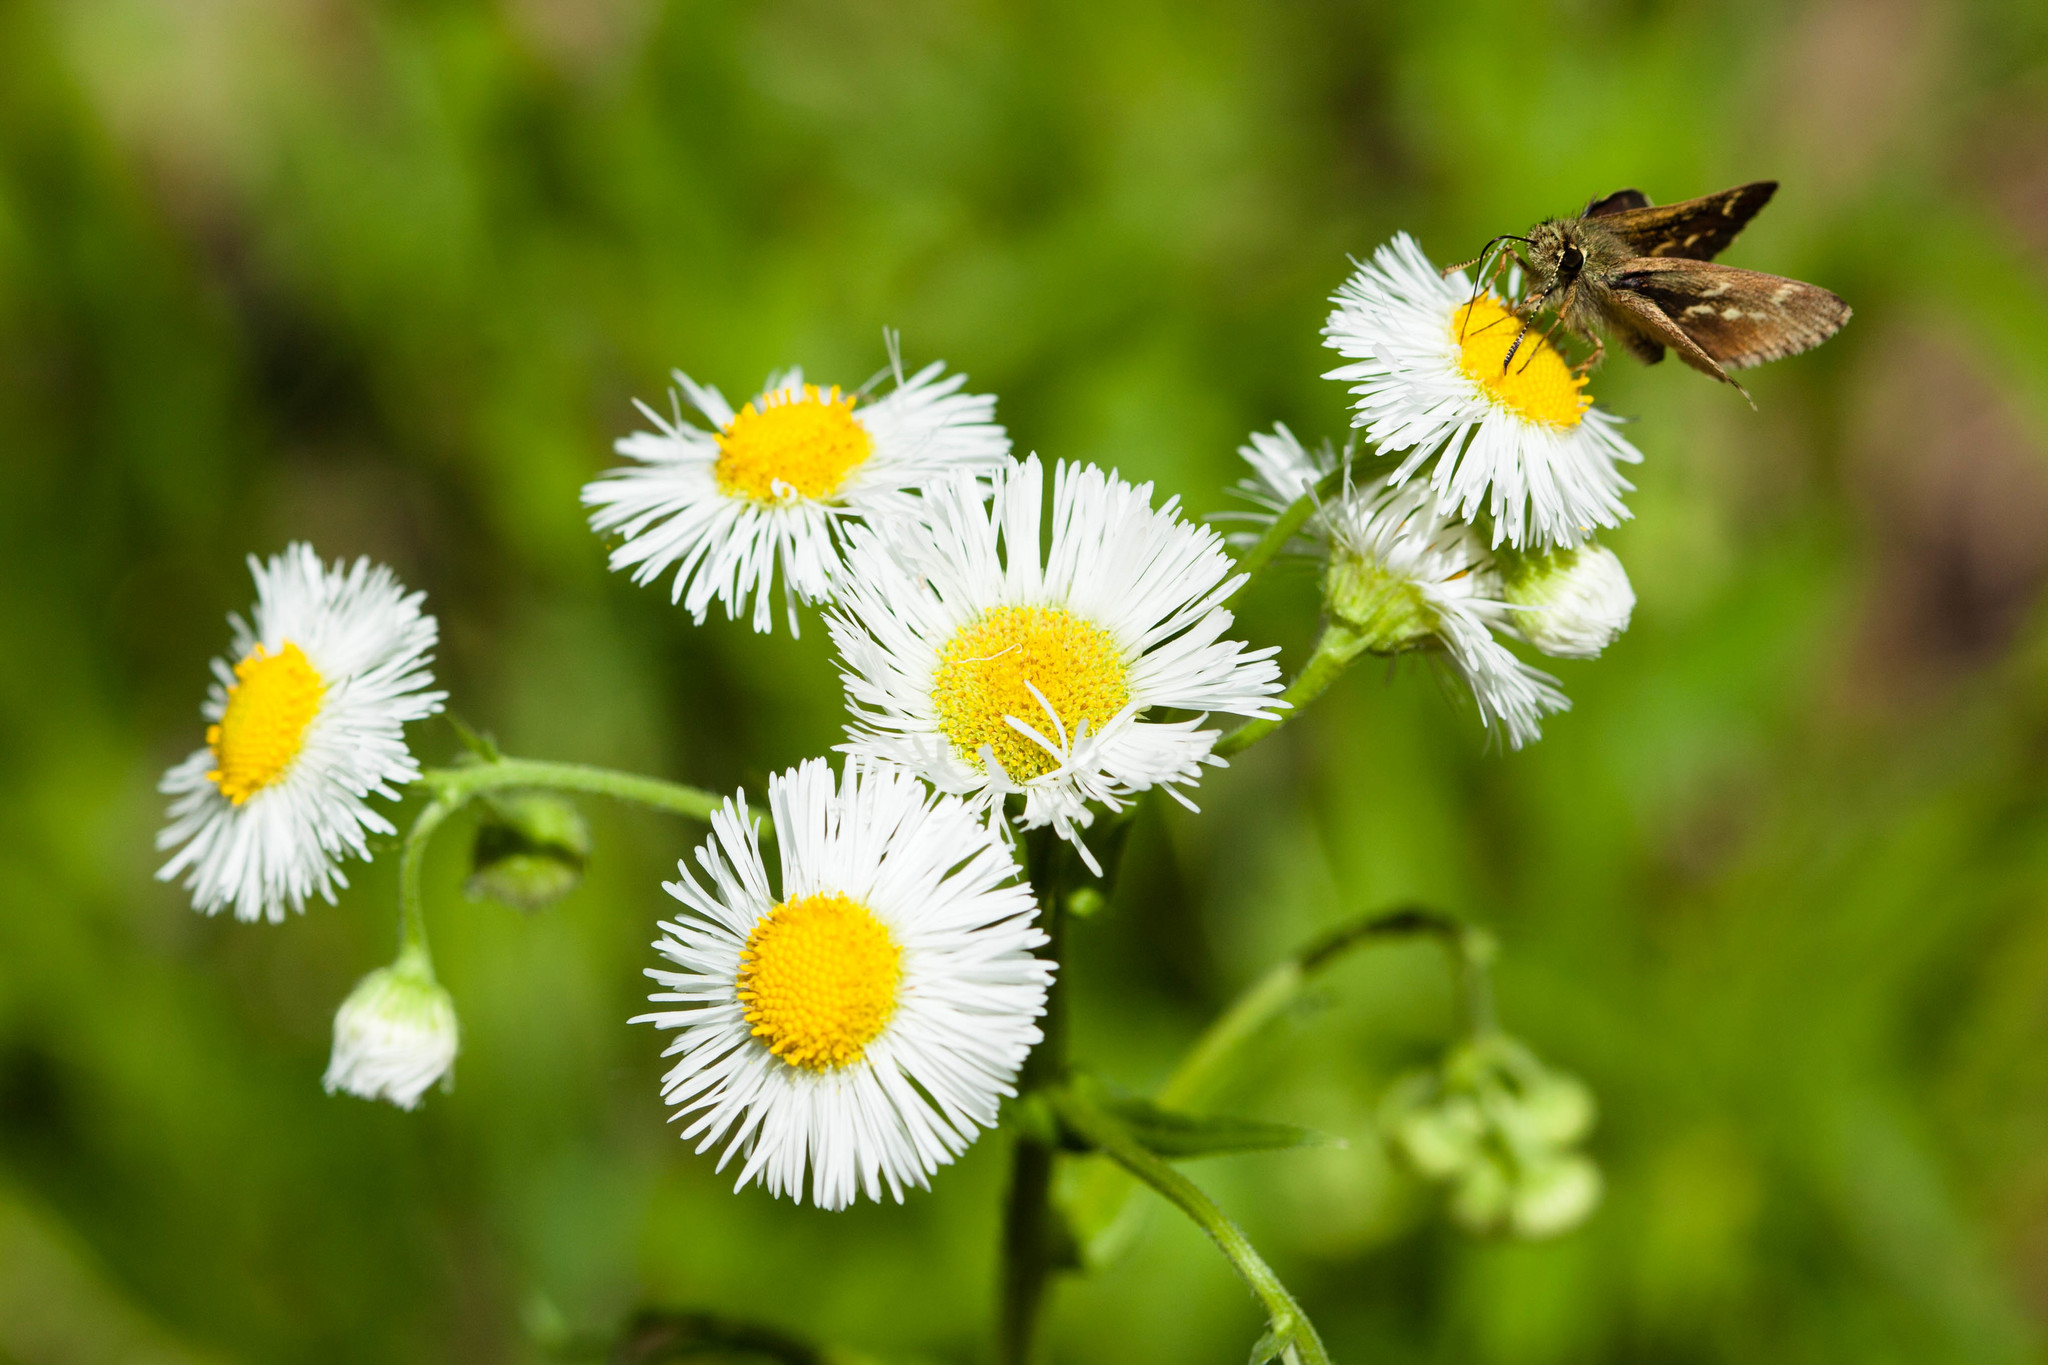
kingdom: Animalia
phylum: Arthropoda
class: Insecta
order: Lepidoptera
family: Hesperiidae
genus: Mastor
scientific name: Mastor hegon
